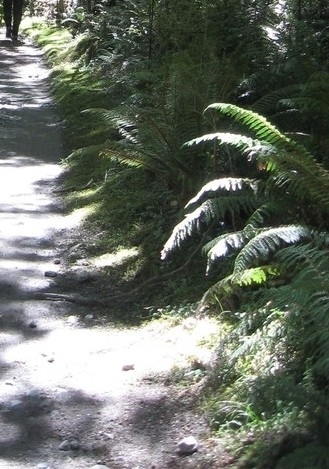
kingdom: Plantae
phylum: Tracheophyta
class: Polypodiopsida
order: Polypodiales
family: Dryopteridaceae
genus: Polystichum
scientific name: Polystichum vestitum
